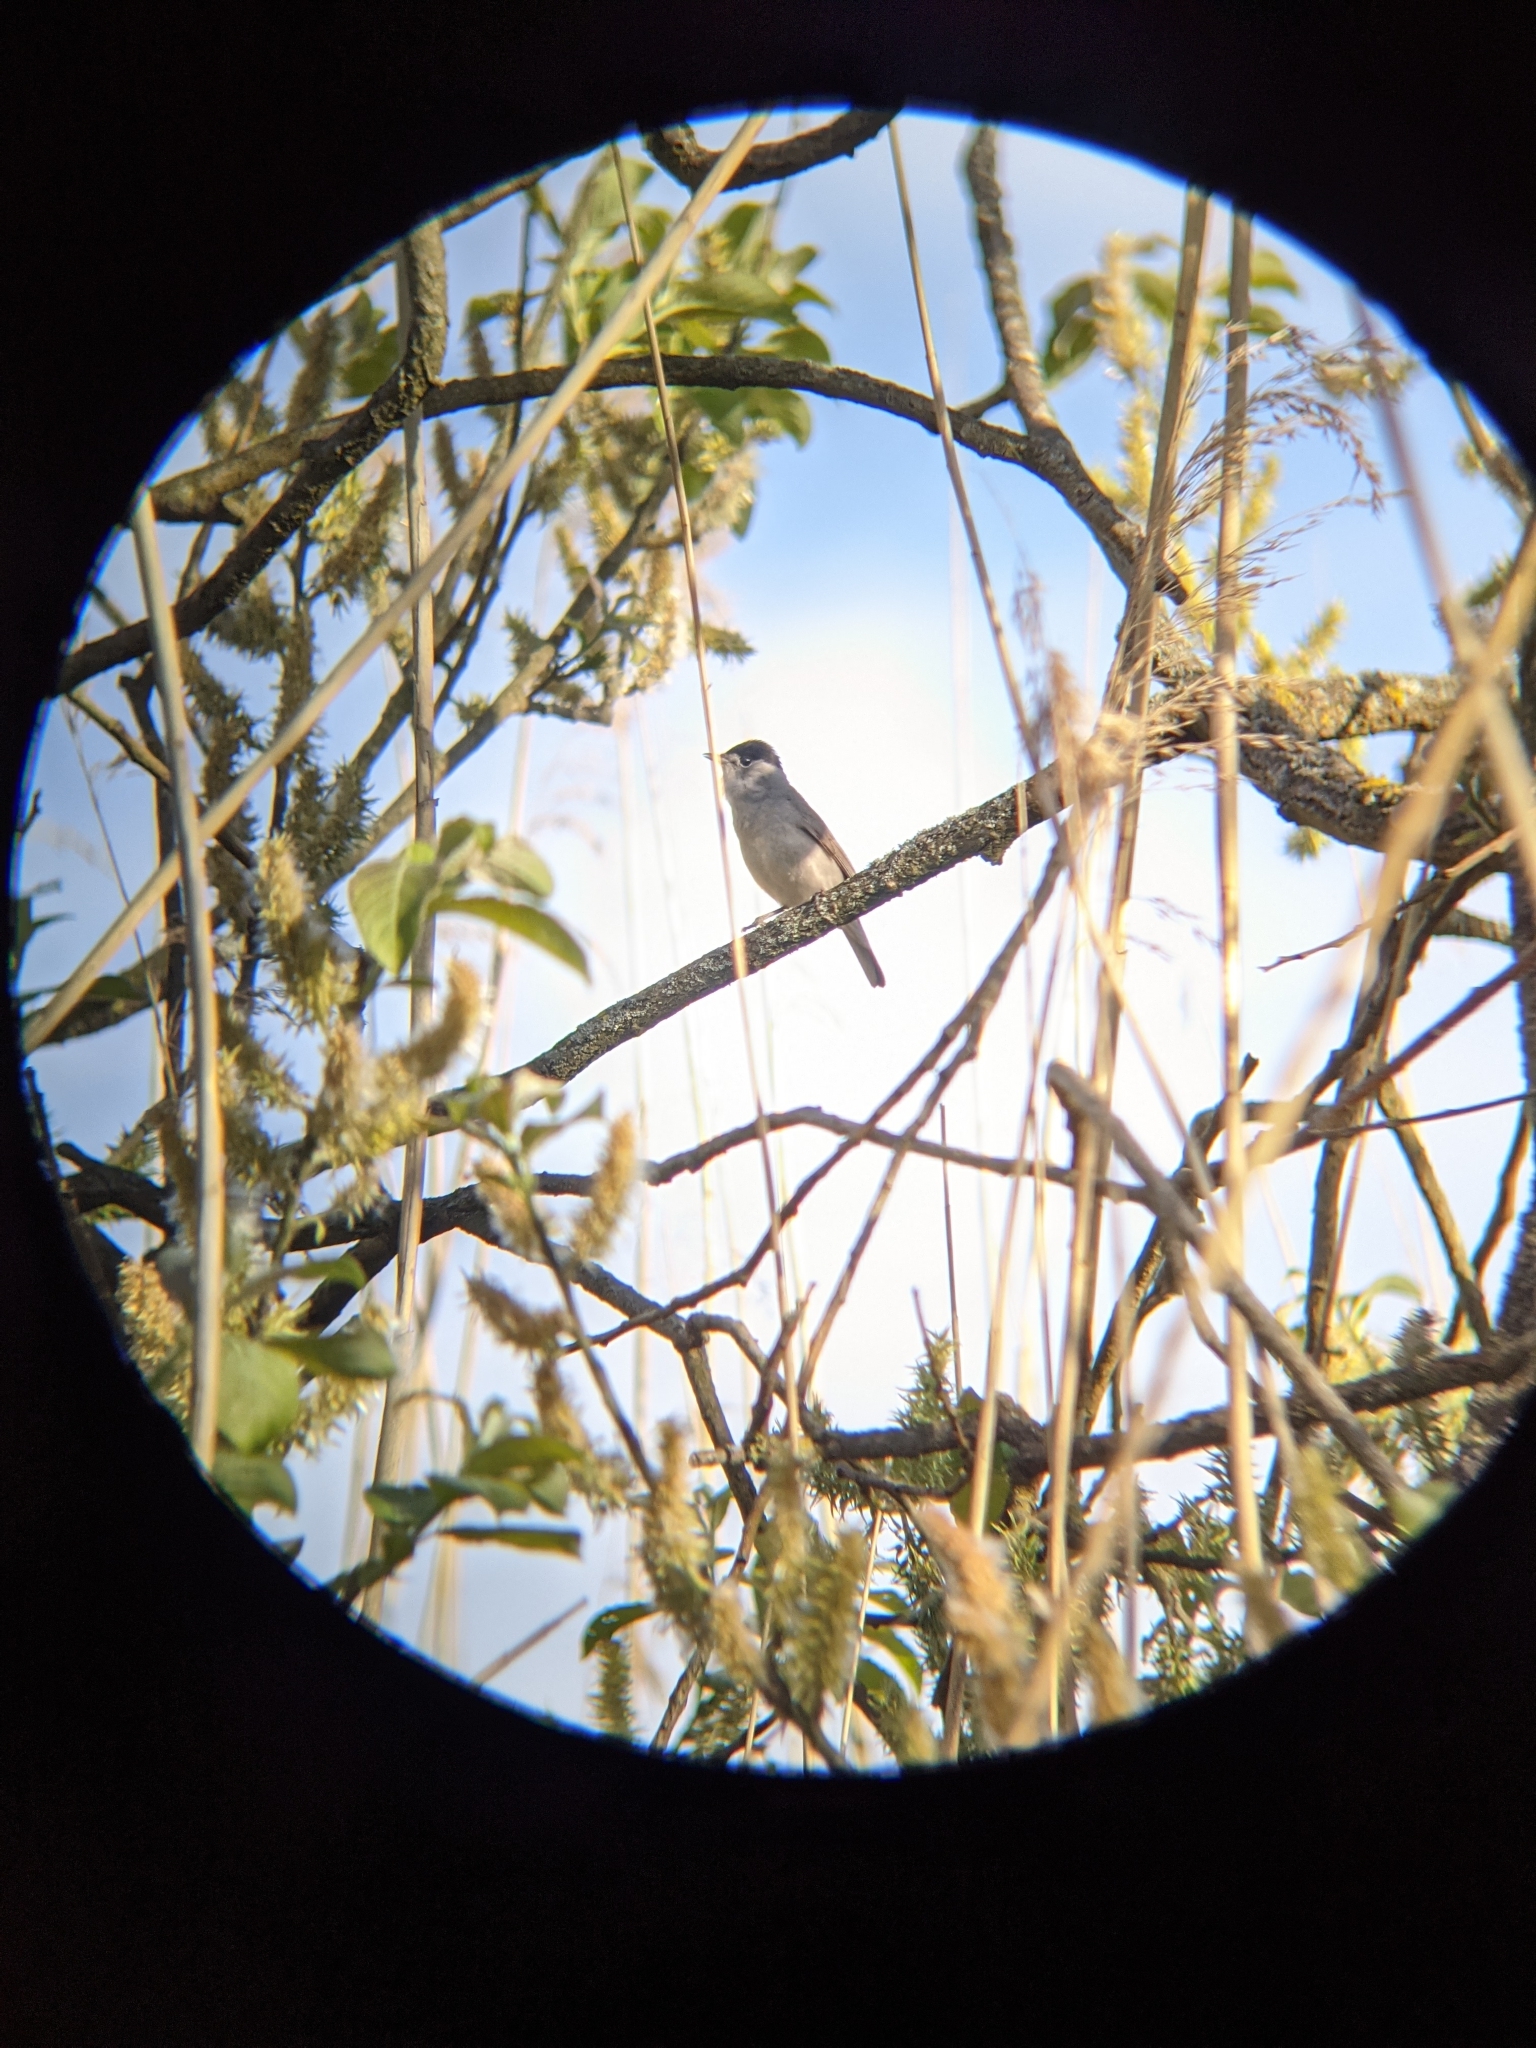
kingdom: Animalia
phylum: Chordata
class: Aves
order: Passeriformes
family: Sylviidae
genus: Sylvia
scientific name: Sylvia atricapilla
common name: Eurasian blackcap
